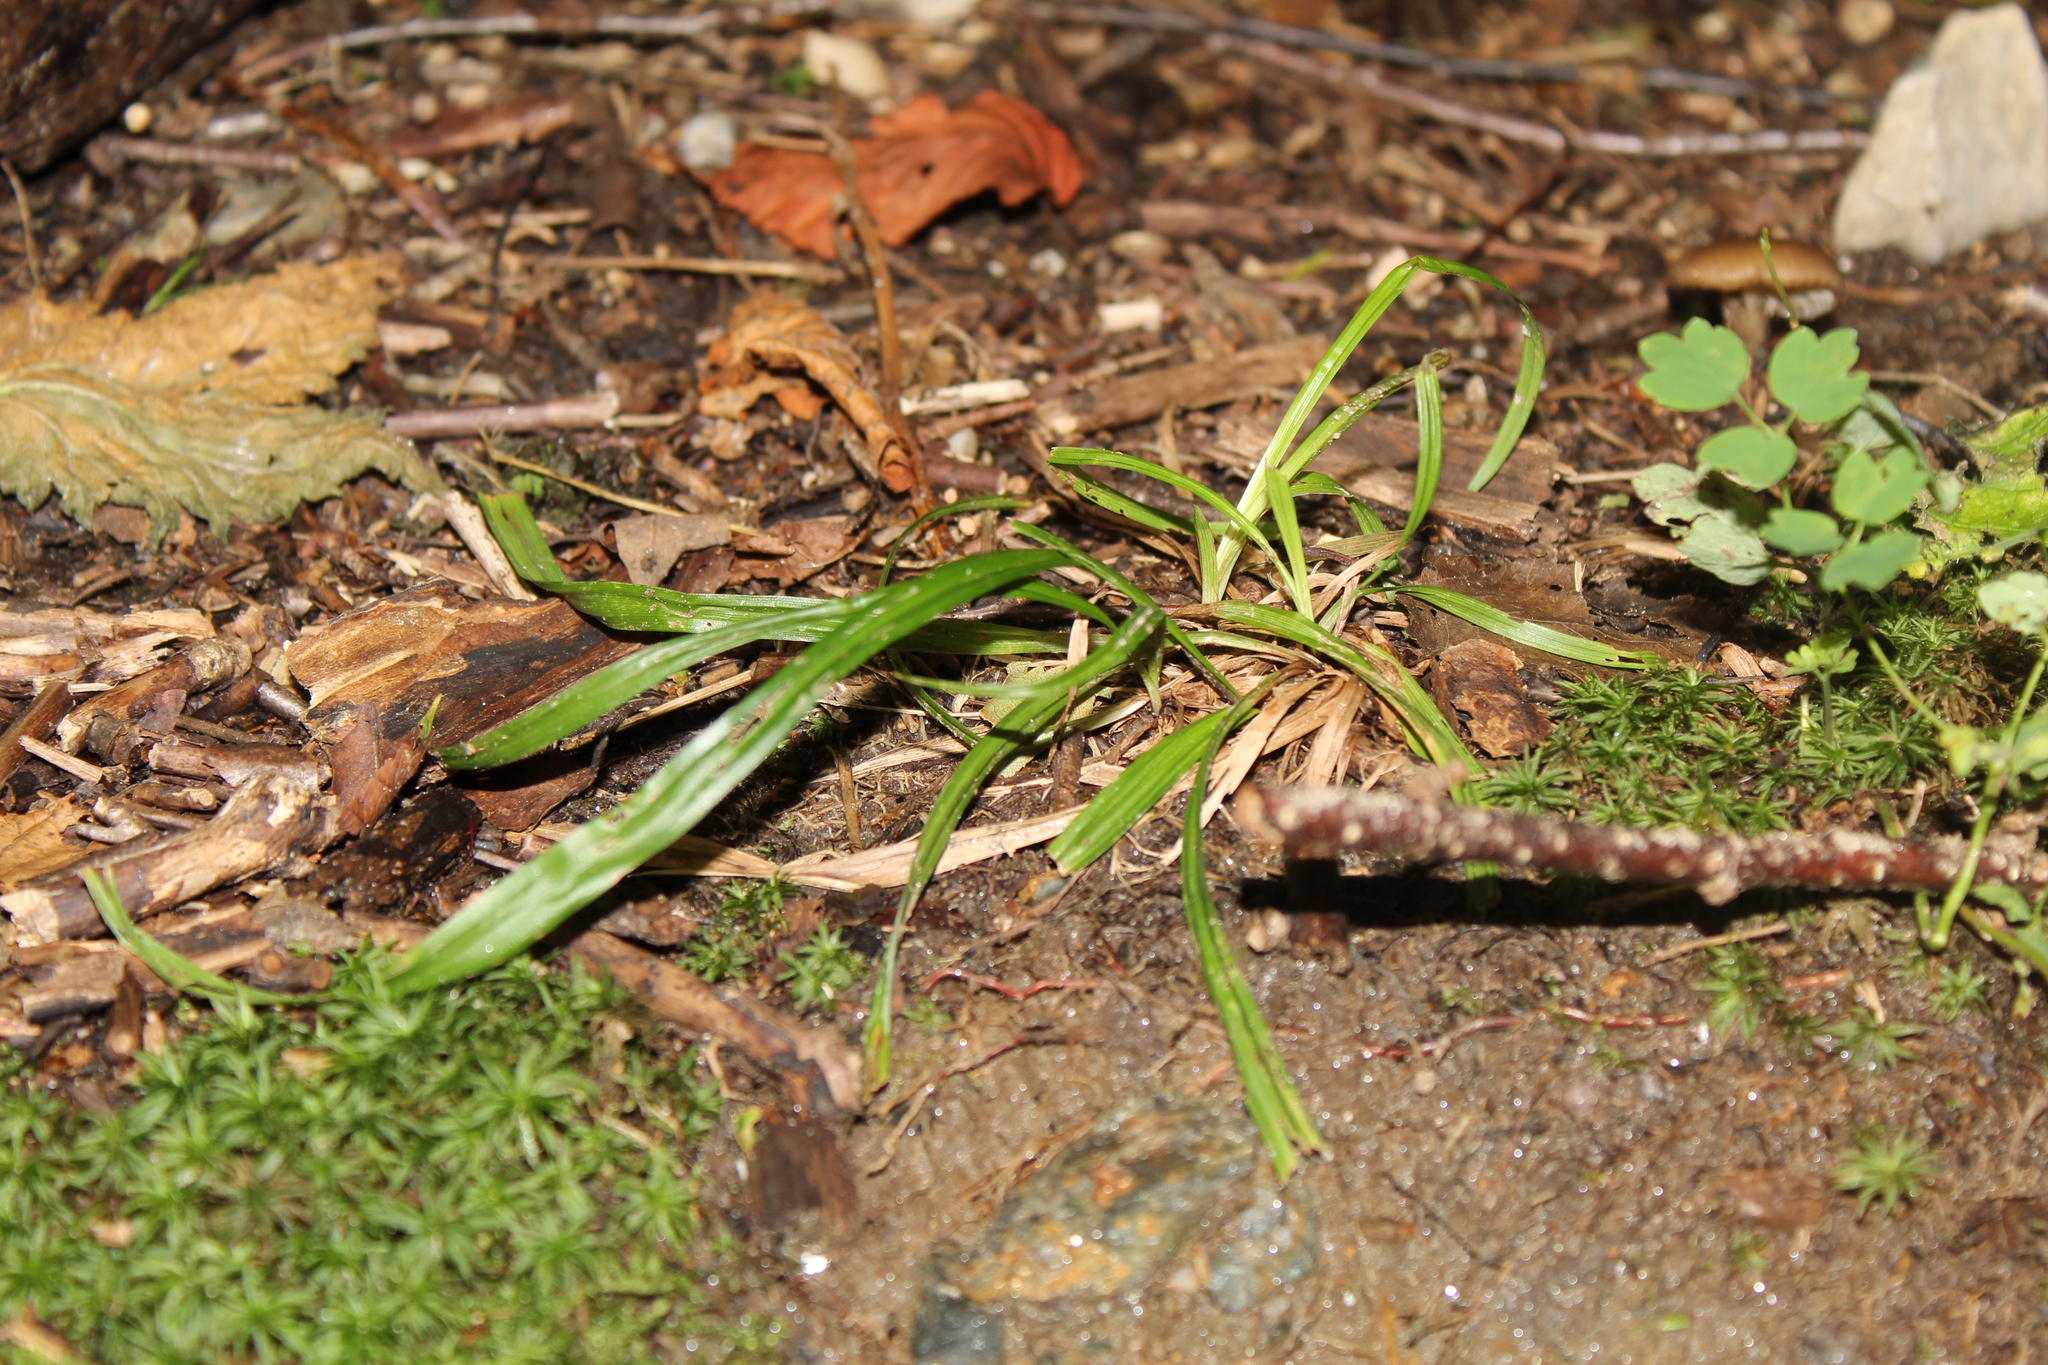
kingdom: Plantae
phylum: Tracheophyta
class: Liliopsida
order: Poales
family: Cyperaceae
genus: Carex
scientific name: Carex
